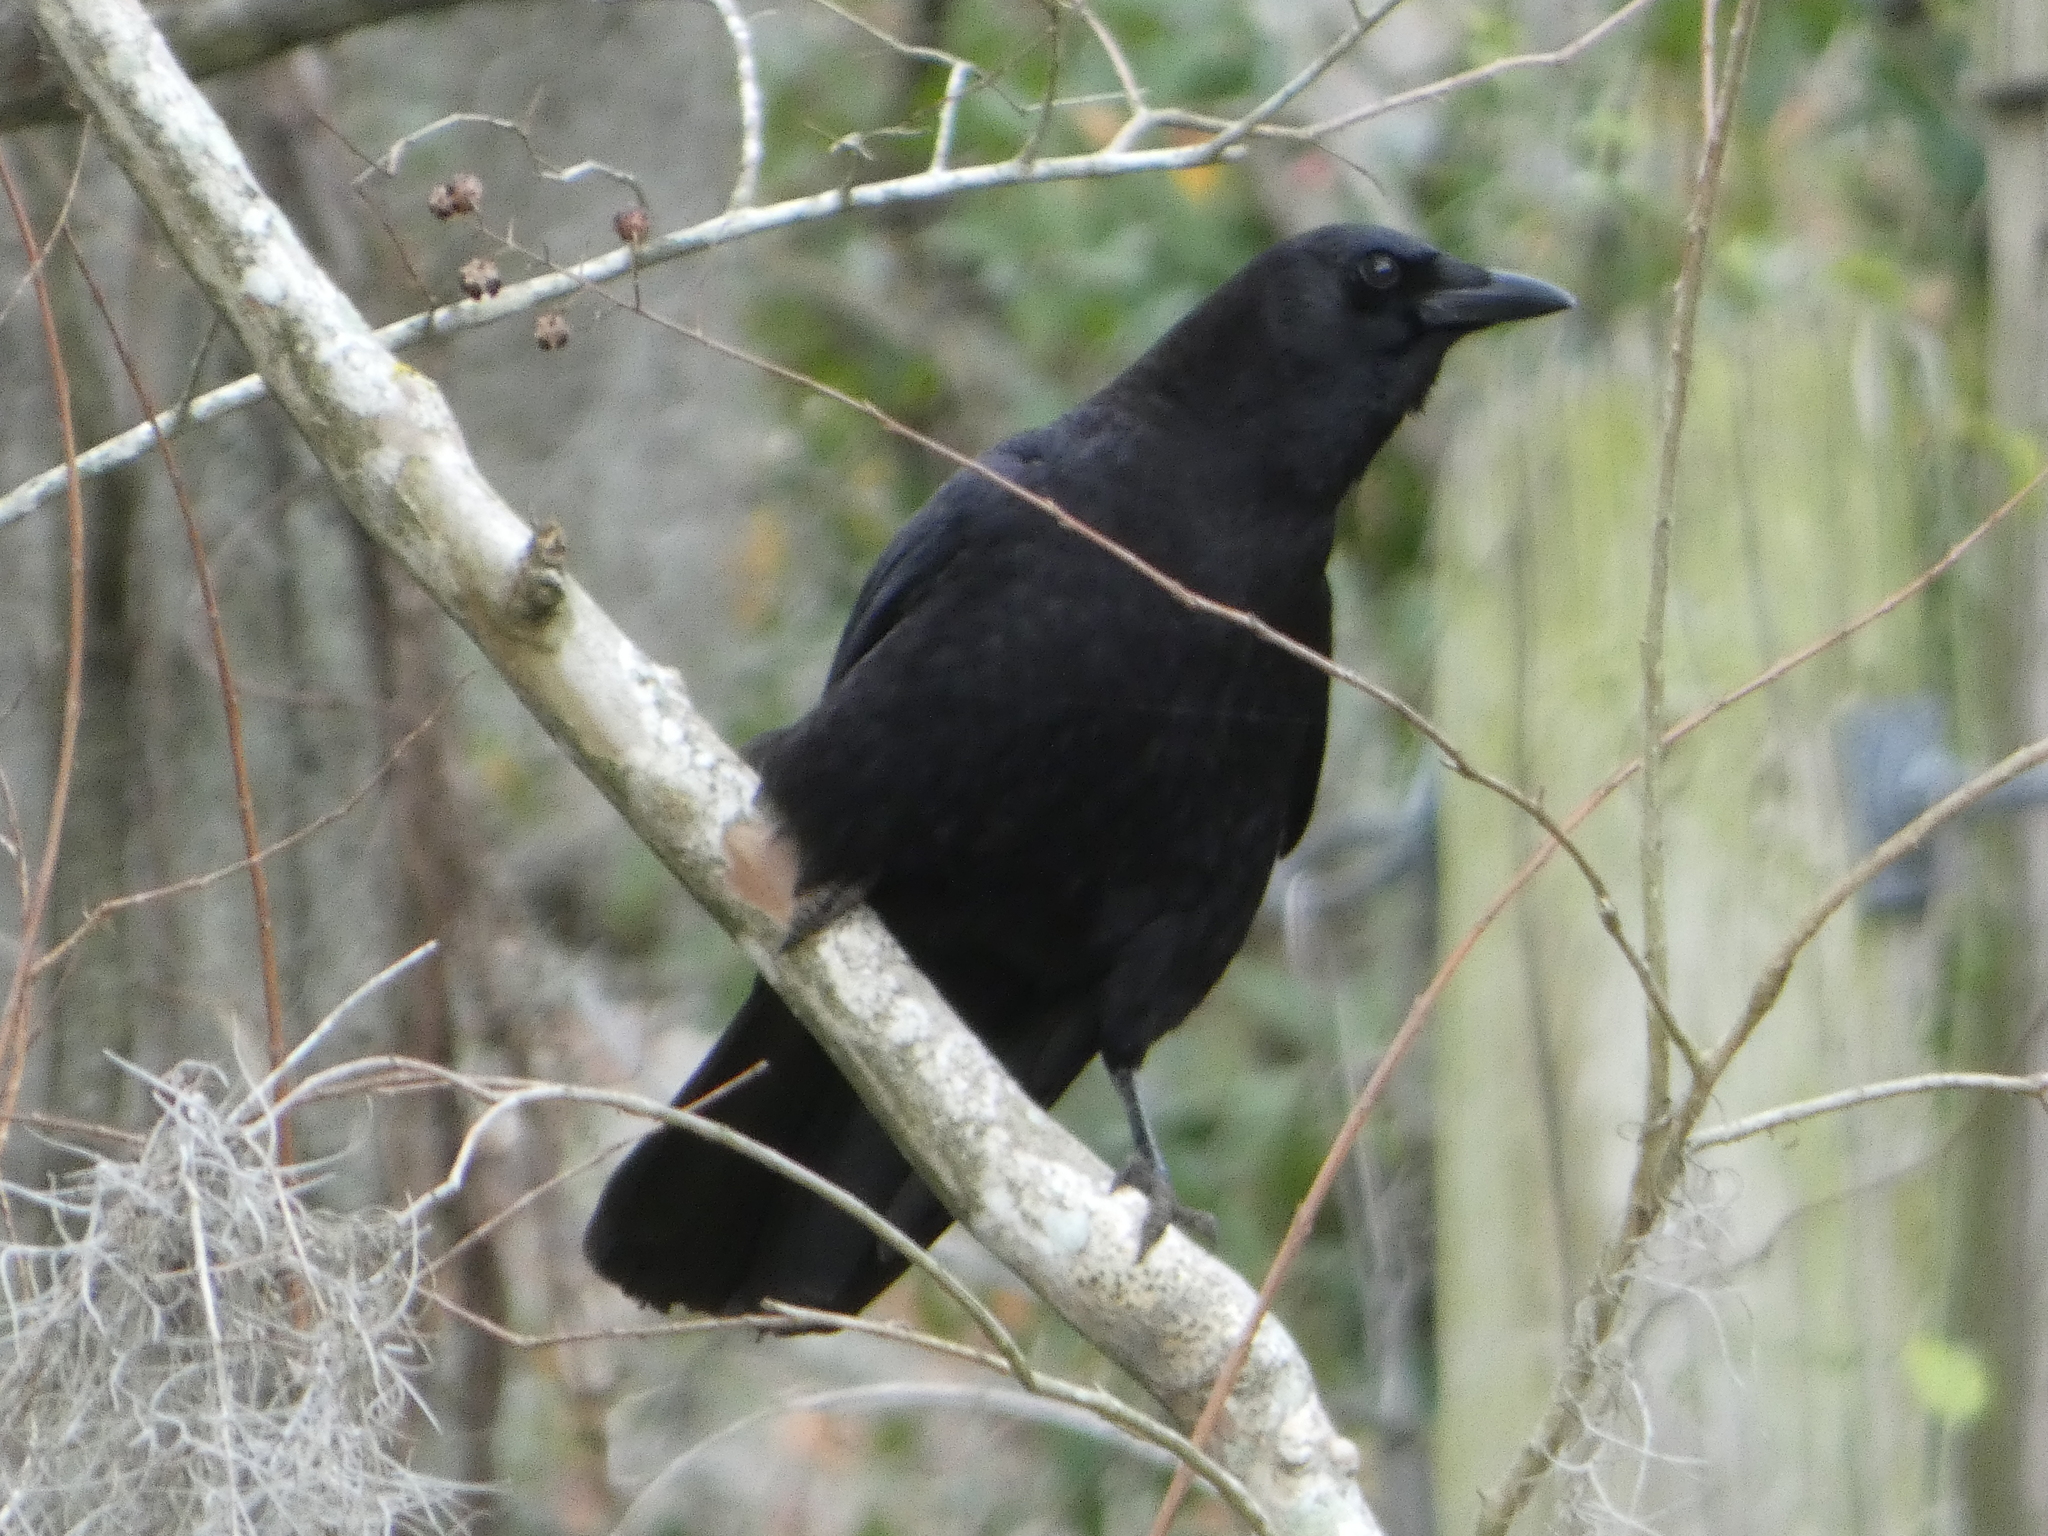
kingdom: Animalia
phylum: Chordata
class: Aves
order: Passeriformes
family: Corvidae
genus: Corvus
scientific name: Corvus brachyrhynchos
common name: American crow
